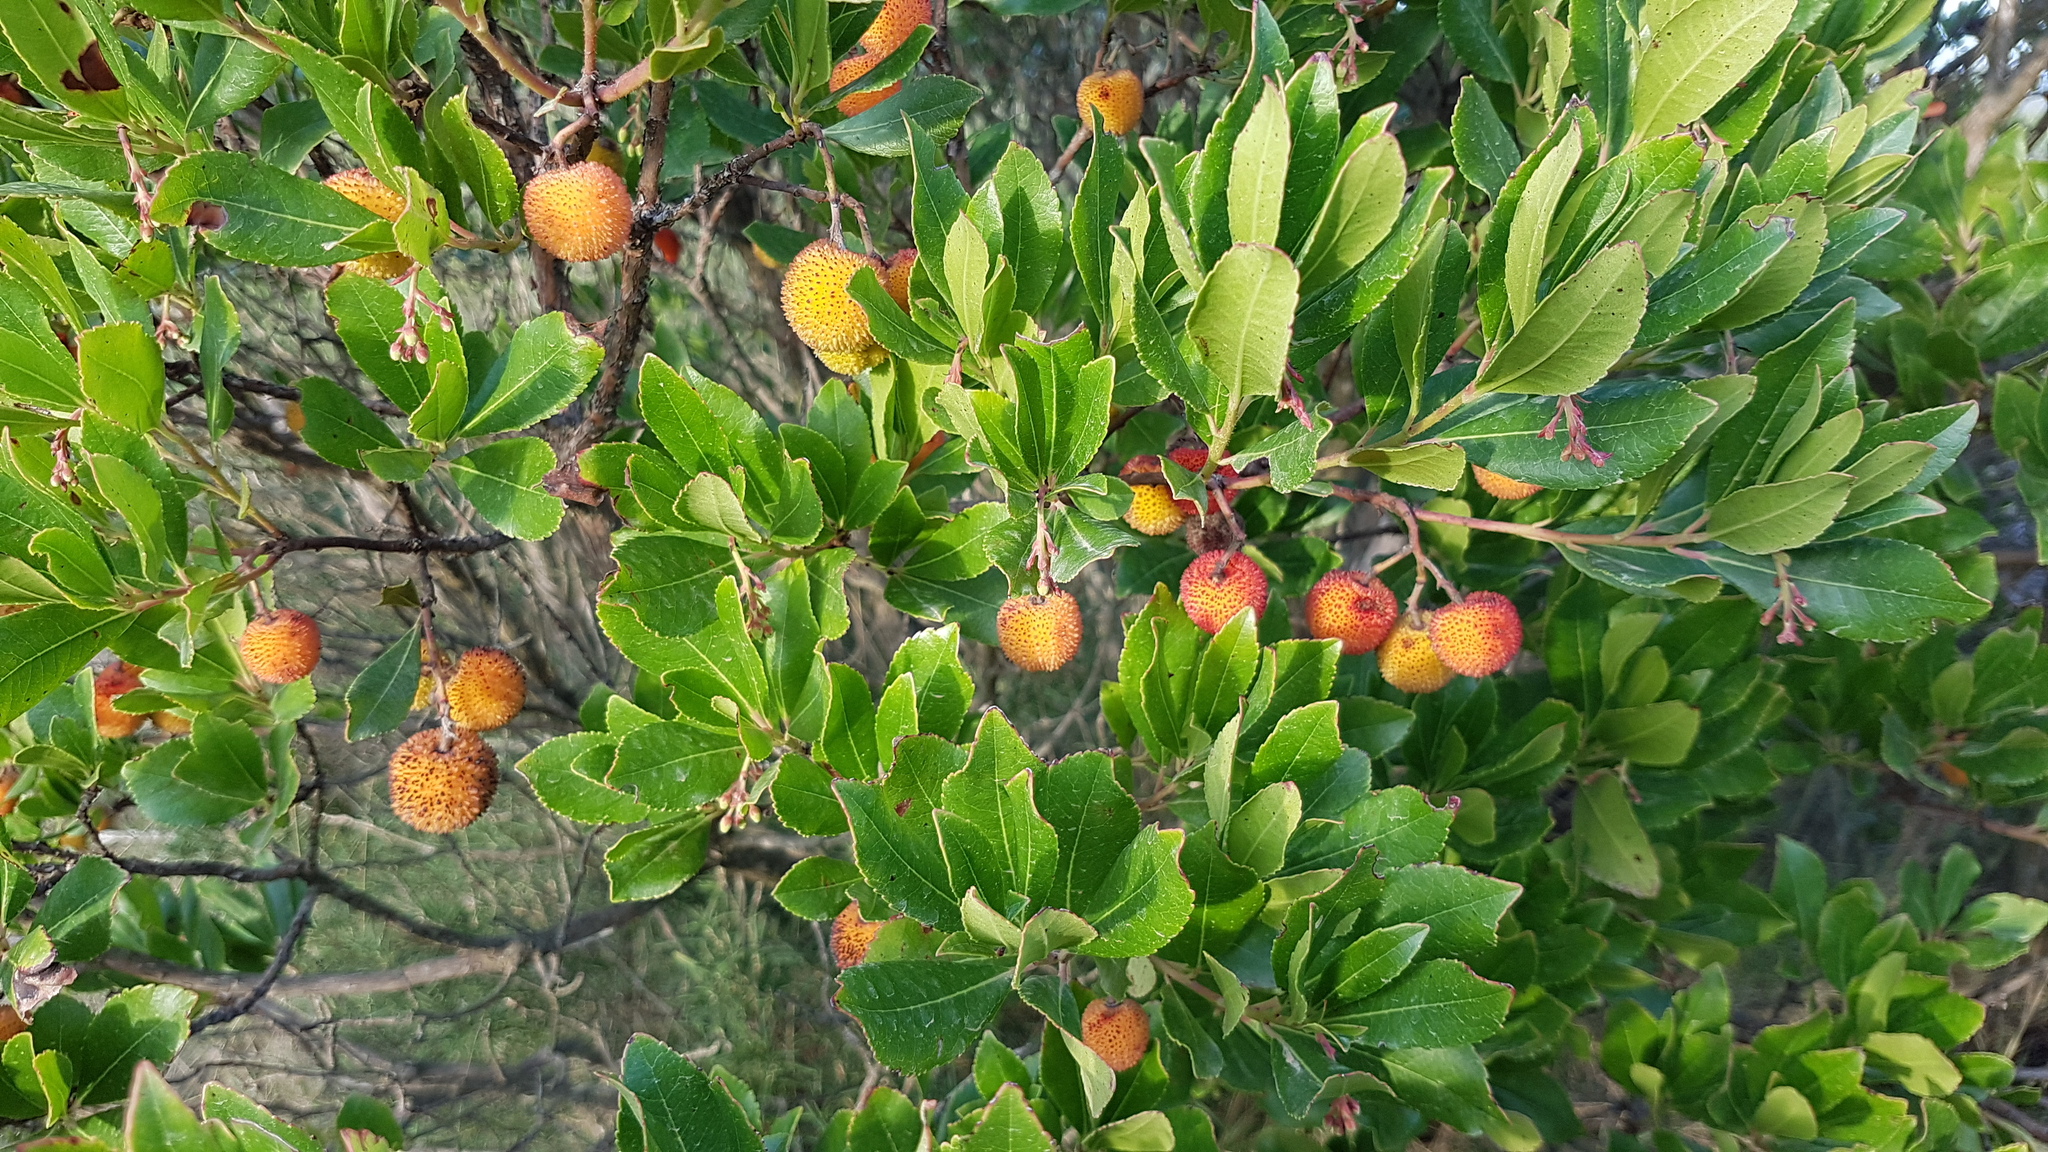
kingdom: Plantae
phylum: Tracheophyta
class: Magnoliopsida
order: Ericales
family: Ericaceae
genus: Arbutus
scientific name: Arbutus unedo
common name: Strawberry-tree
